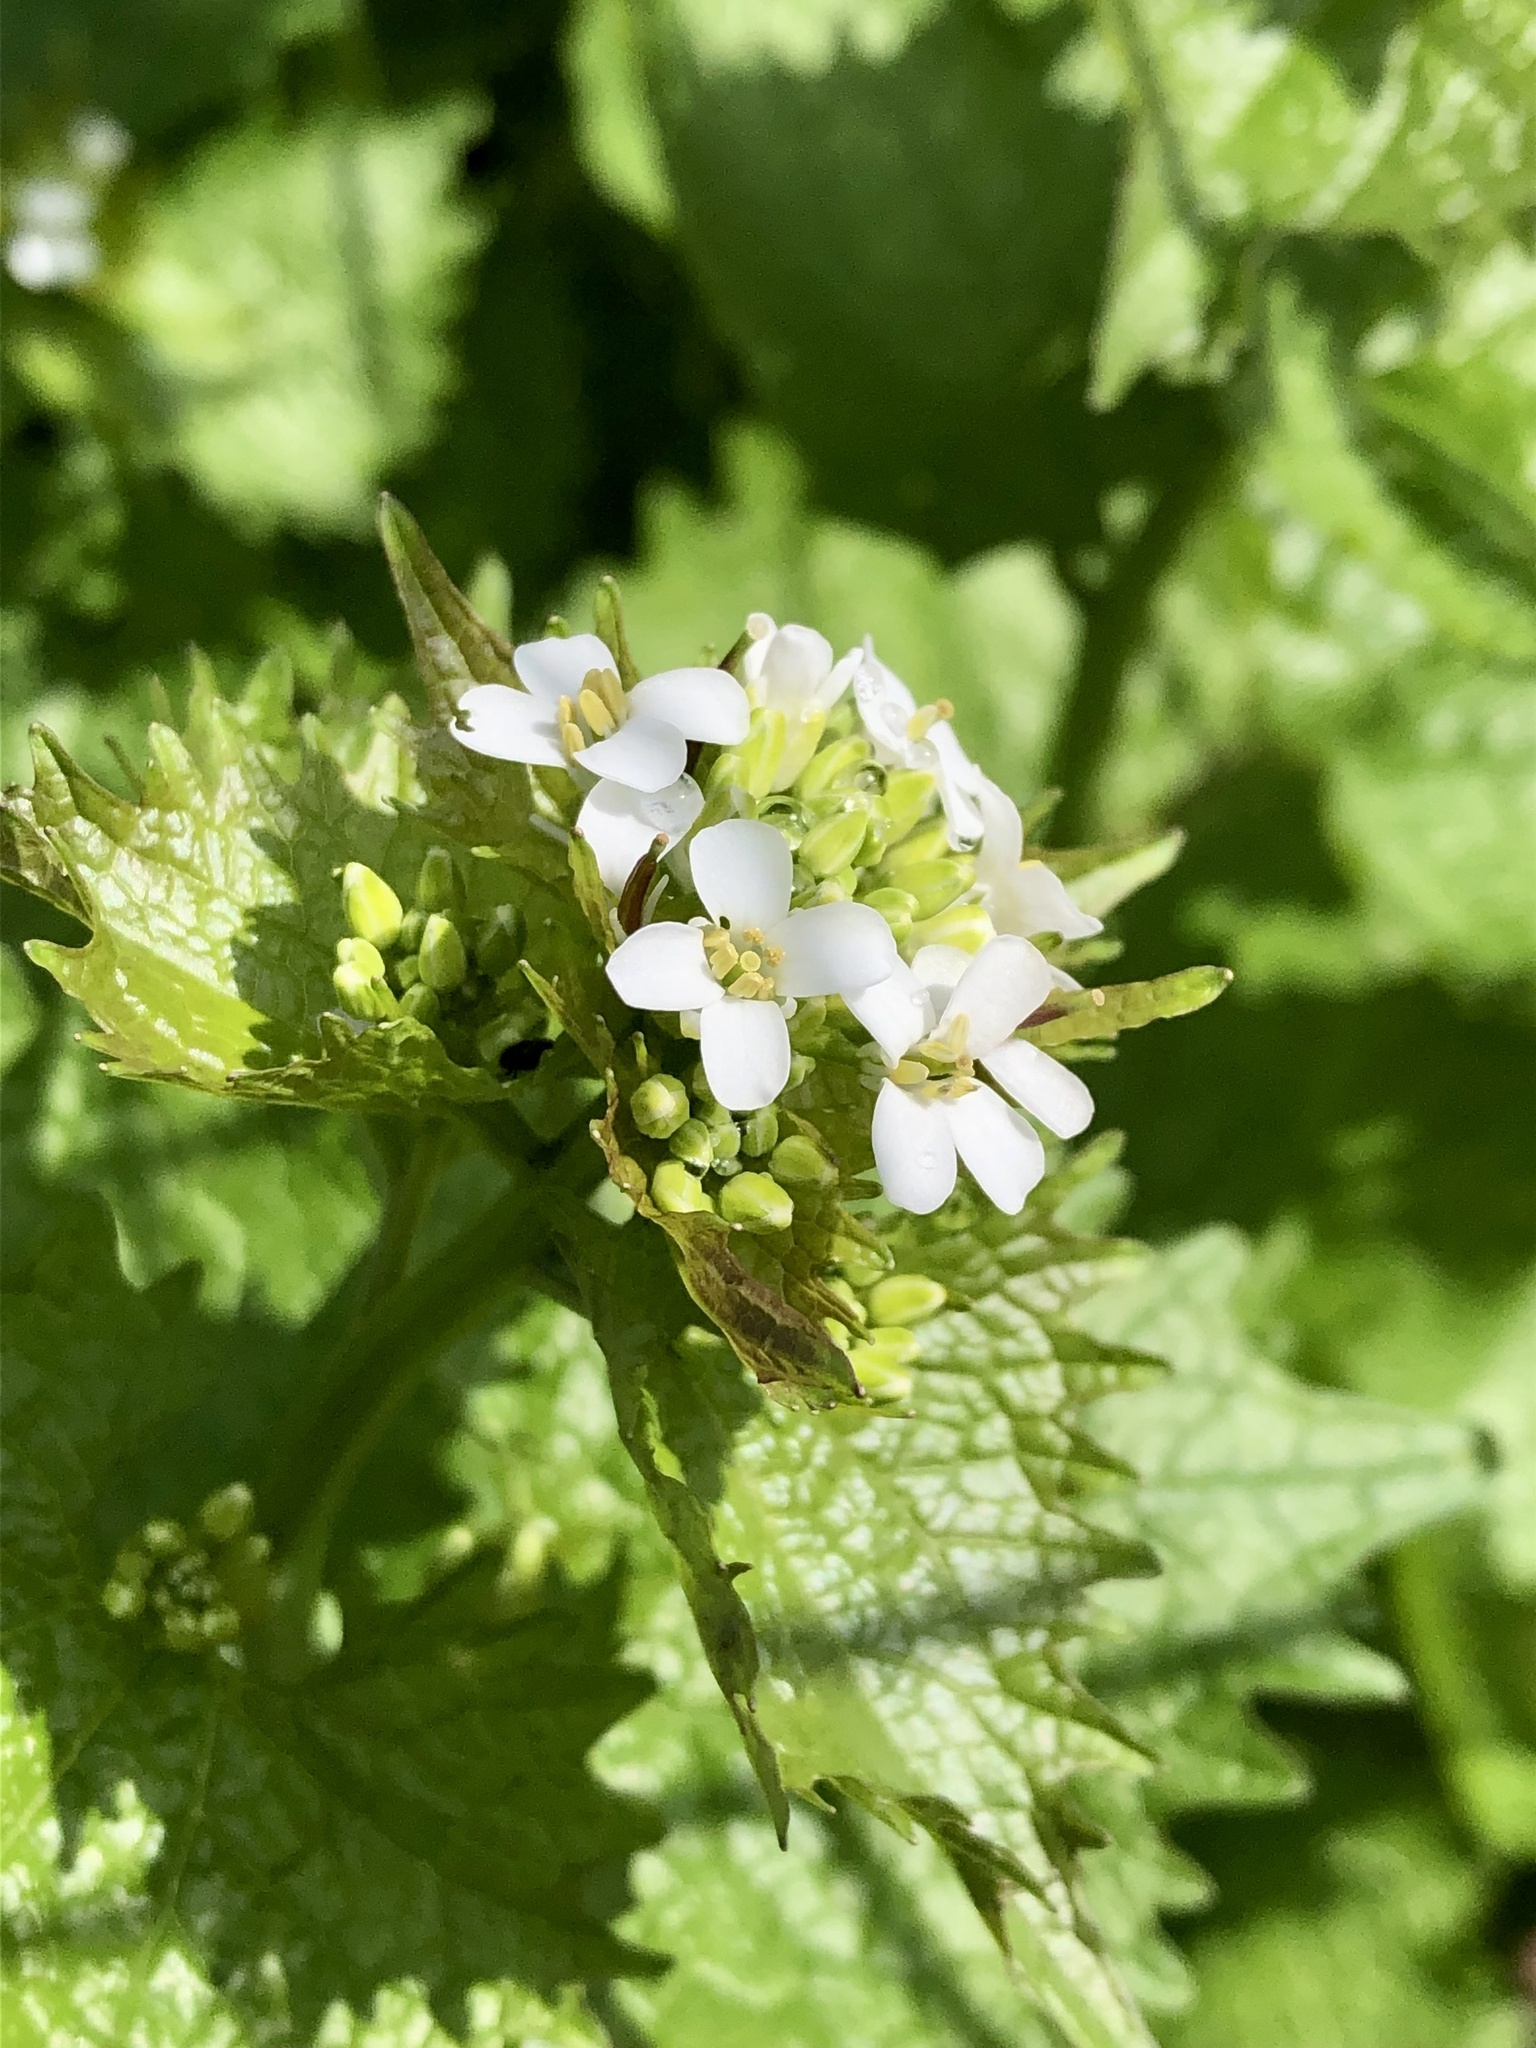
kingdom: Plantae
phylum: Tracheophyta
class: Magnoliopsida
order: Brassicales
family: Brassicaceae
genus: Alliaria
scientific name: Alliaria petiolata
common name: Garlic mustard
